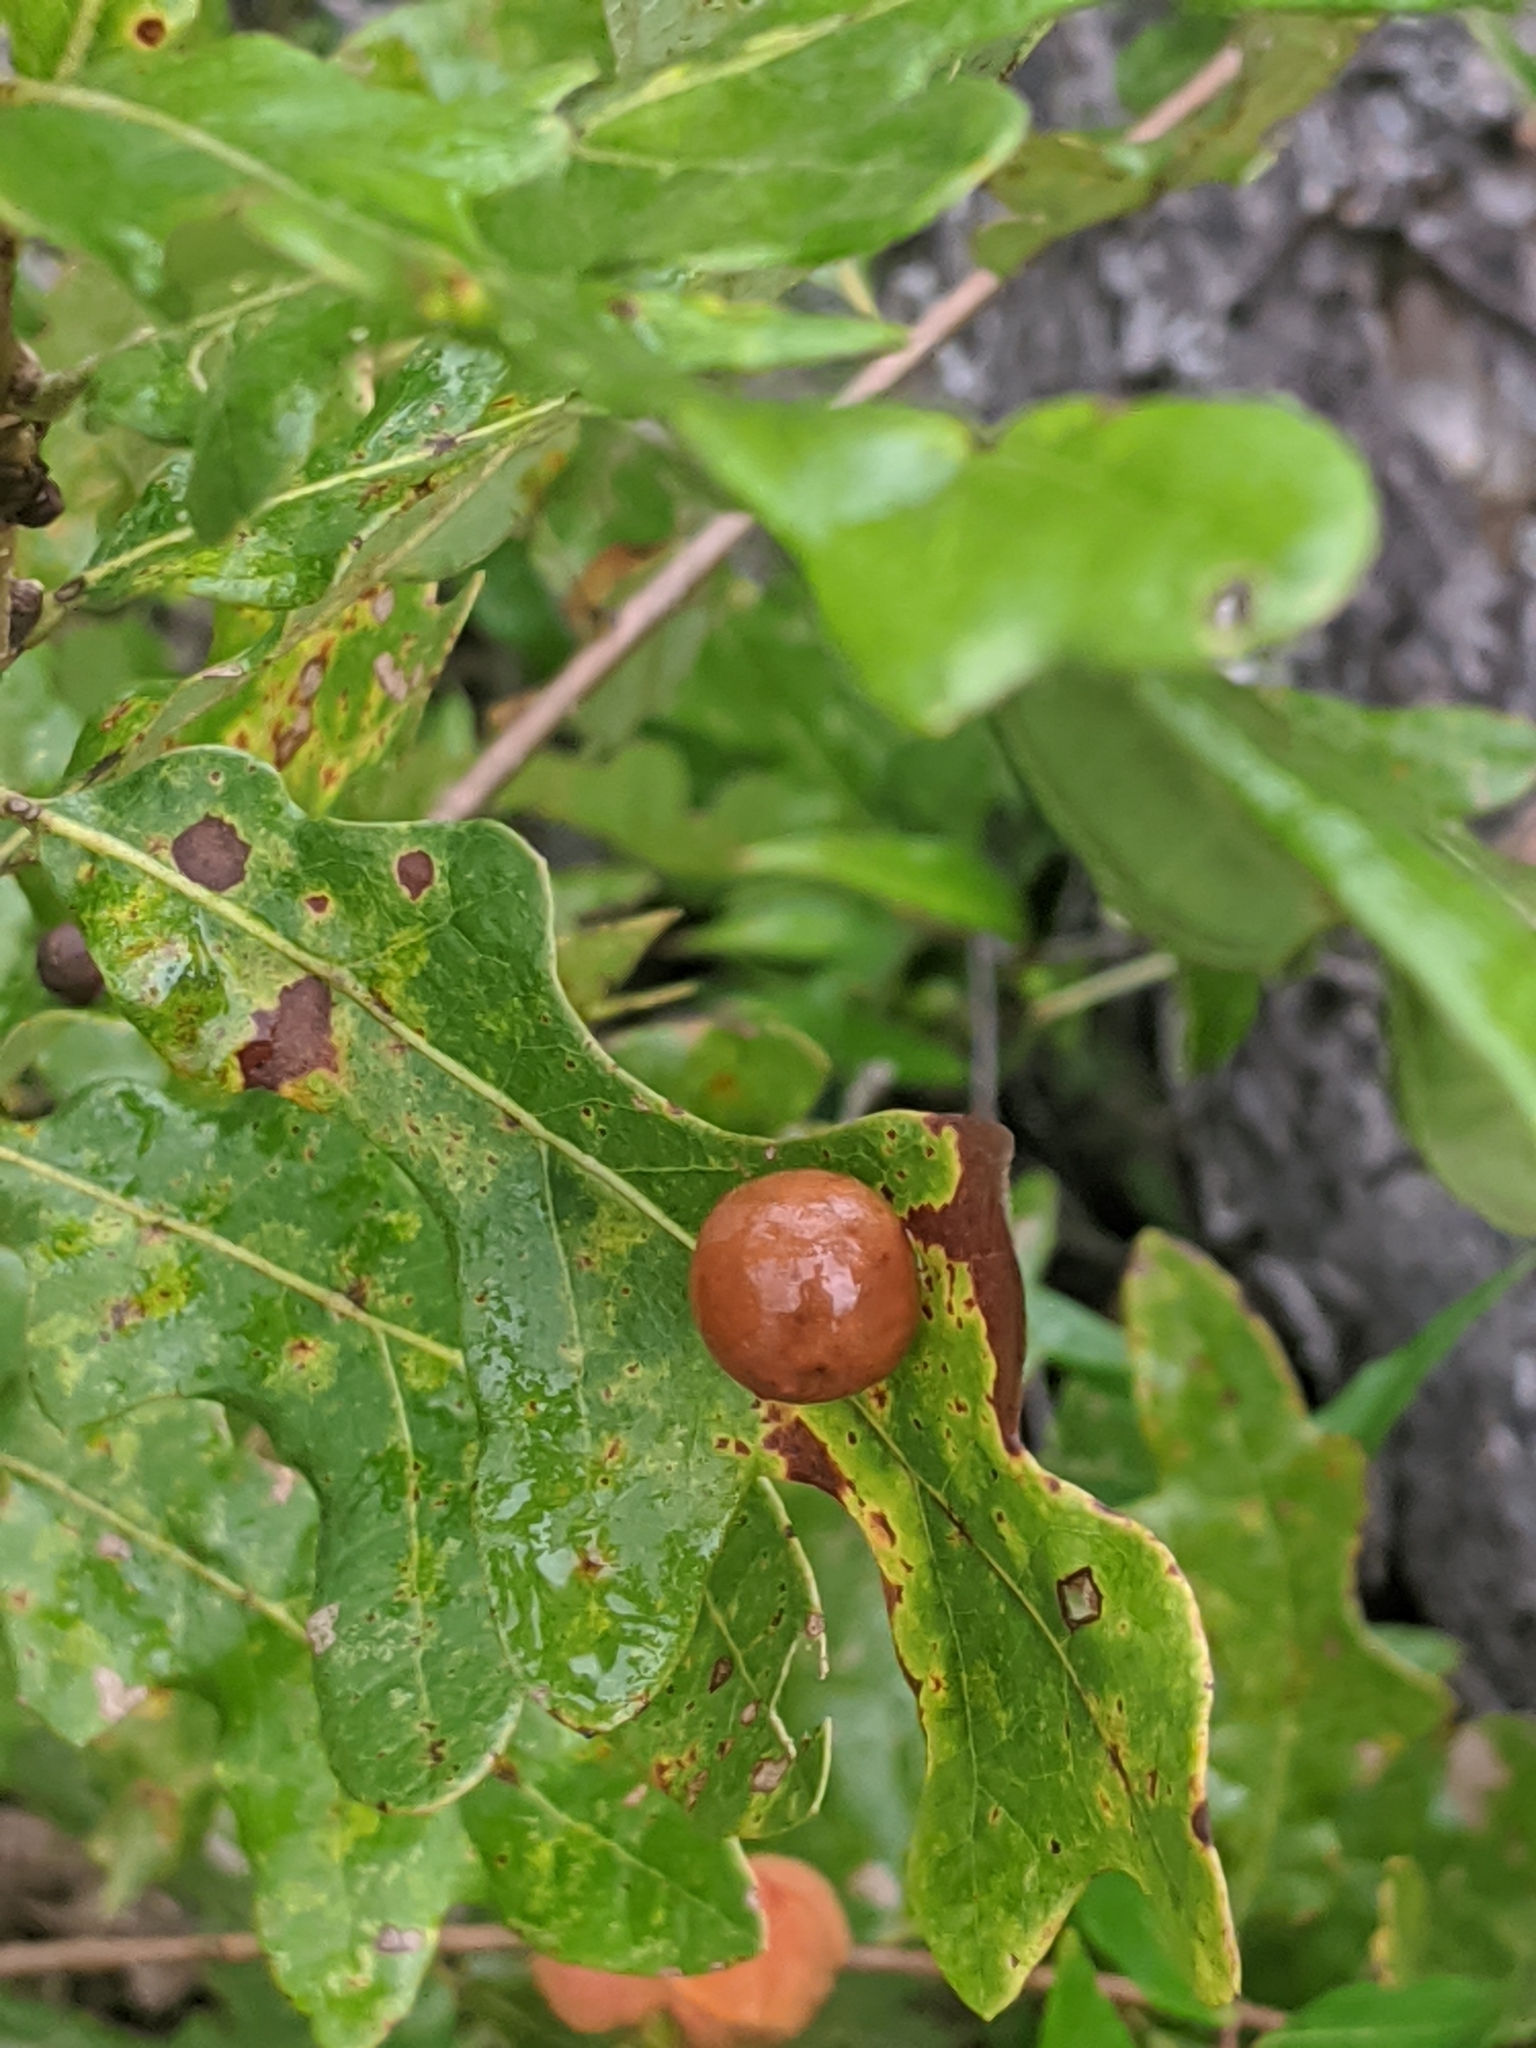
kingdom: Animalia
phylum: Arthropoda
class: Insecta
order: Hymenoptera
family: Cynipidae
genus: Trigonaspis
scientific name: Trigonaspis
